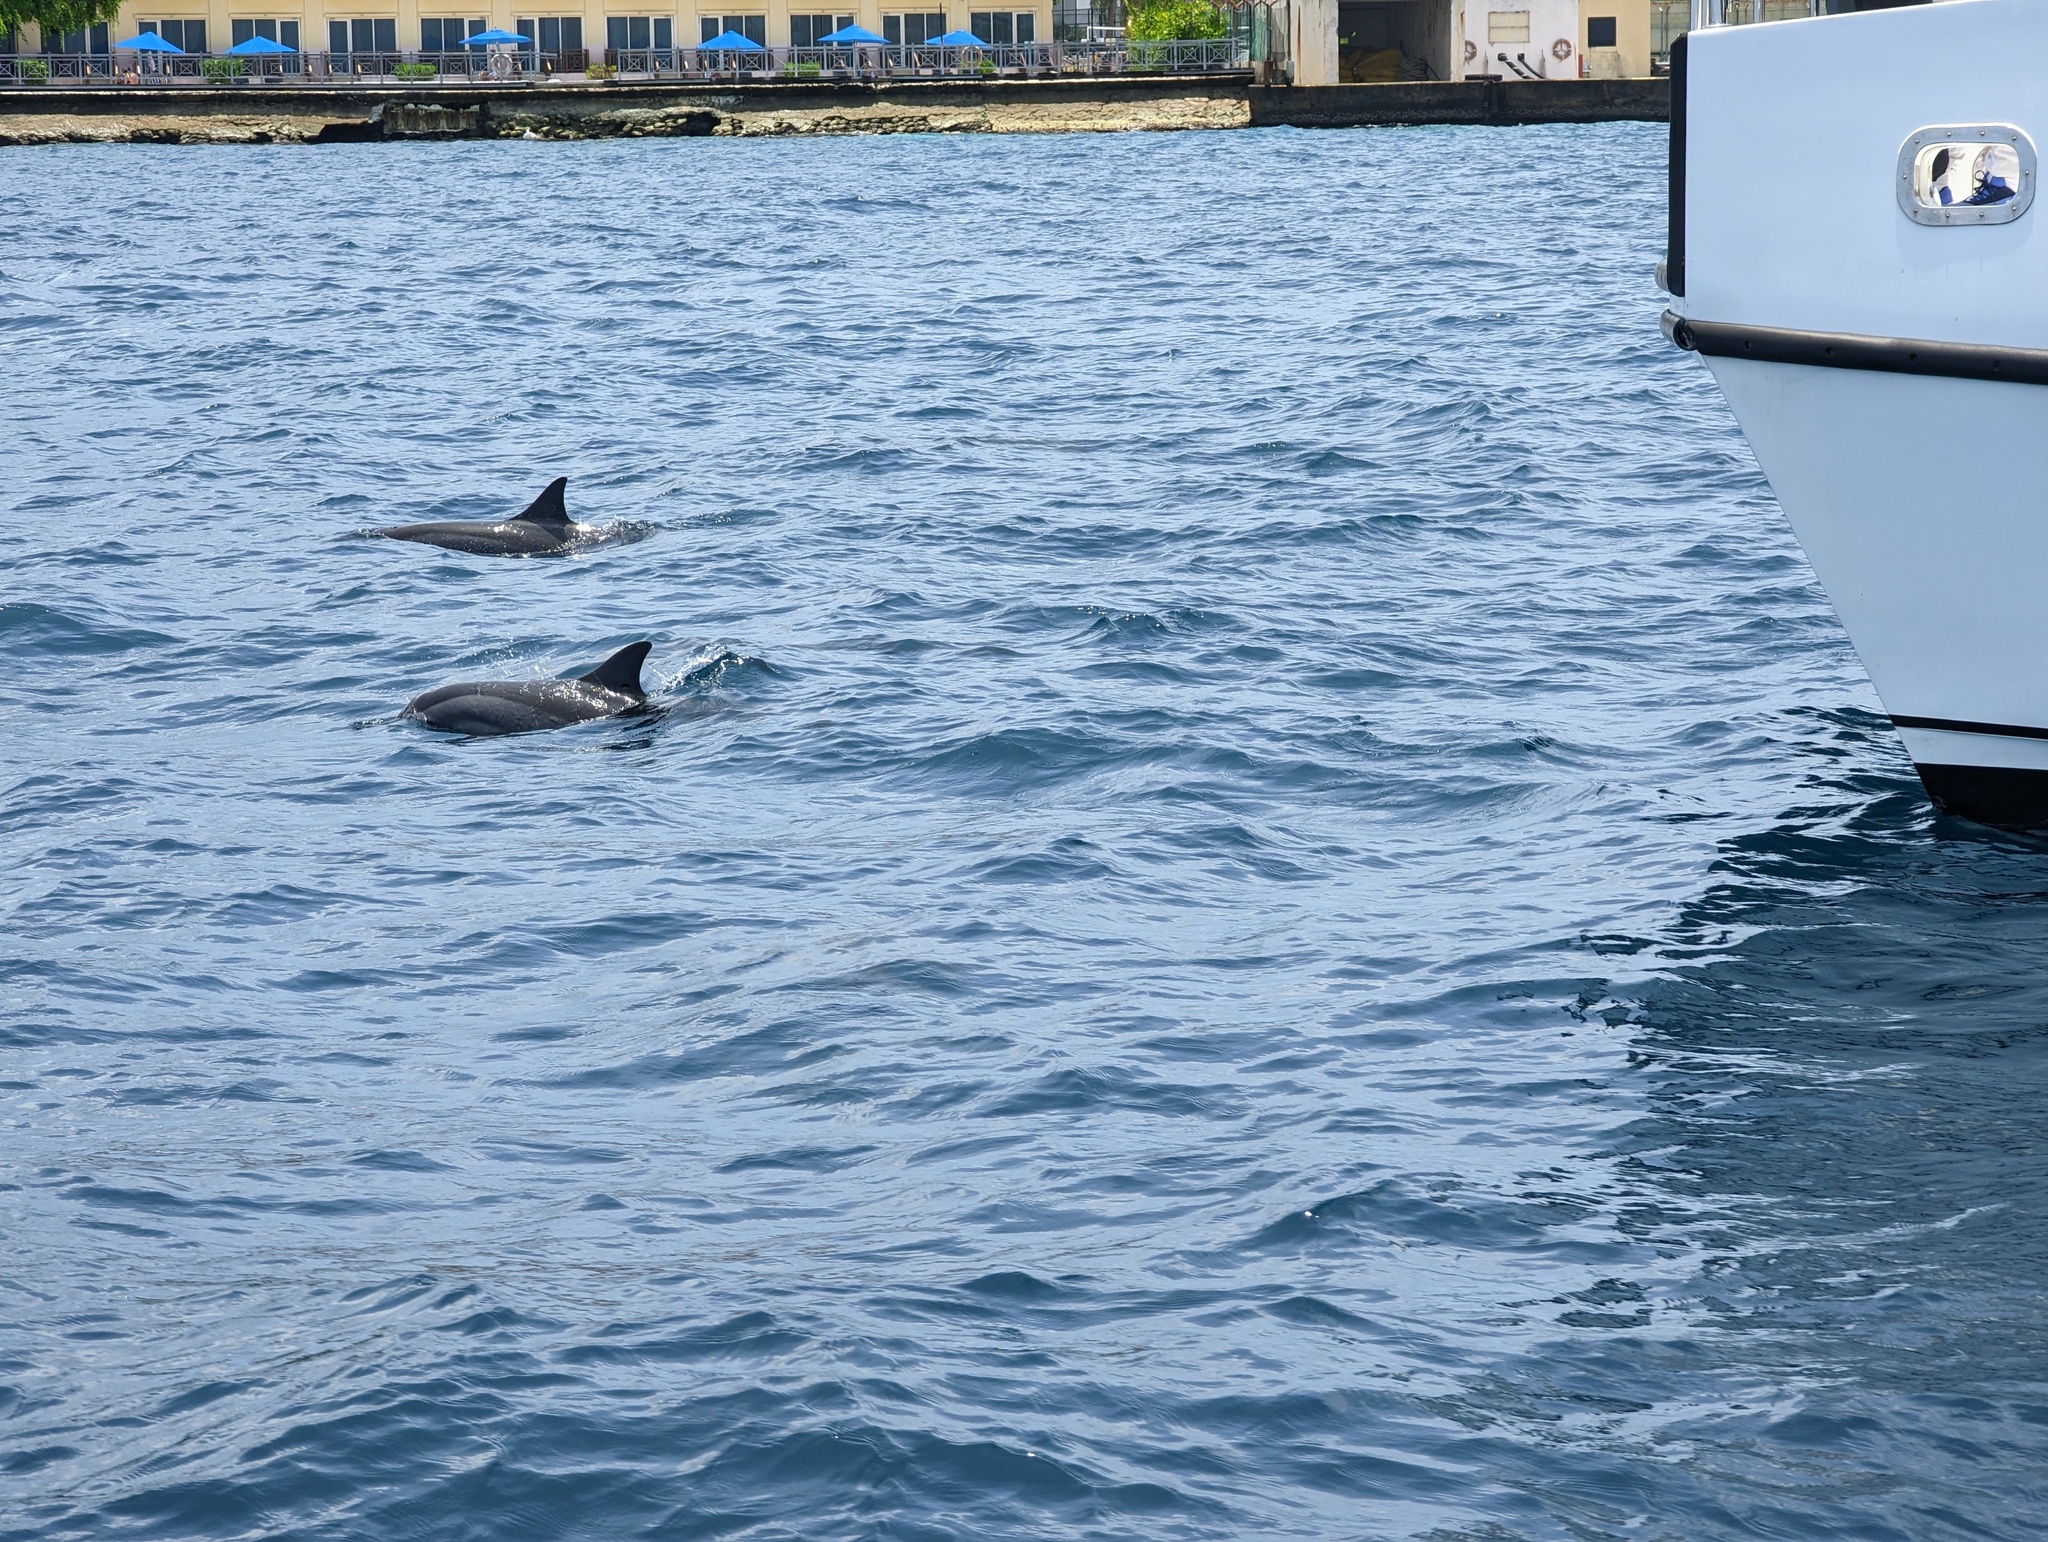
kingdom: Animalia
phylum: Chordata
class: Mammalia
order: Cetacea
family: Delphinidae
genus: Stenella
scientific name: Stenella longirostris
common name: Spinner dolphin
